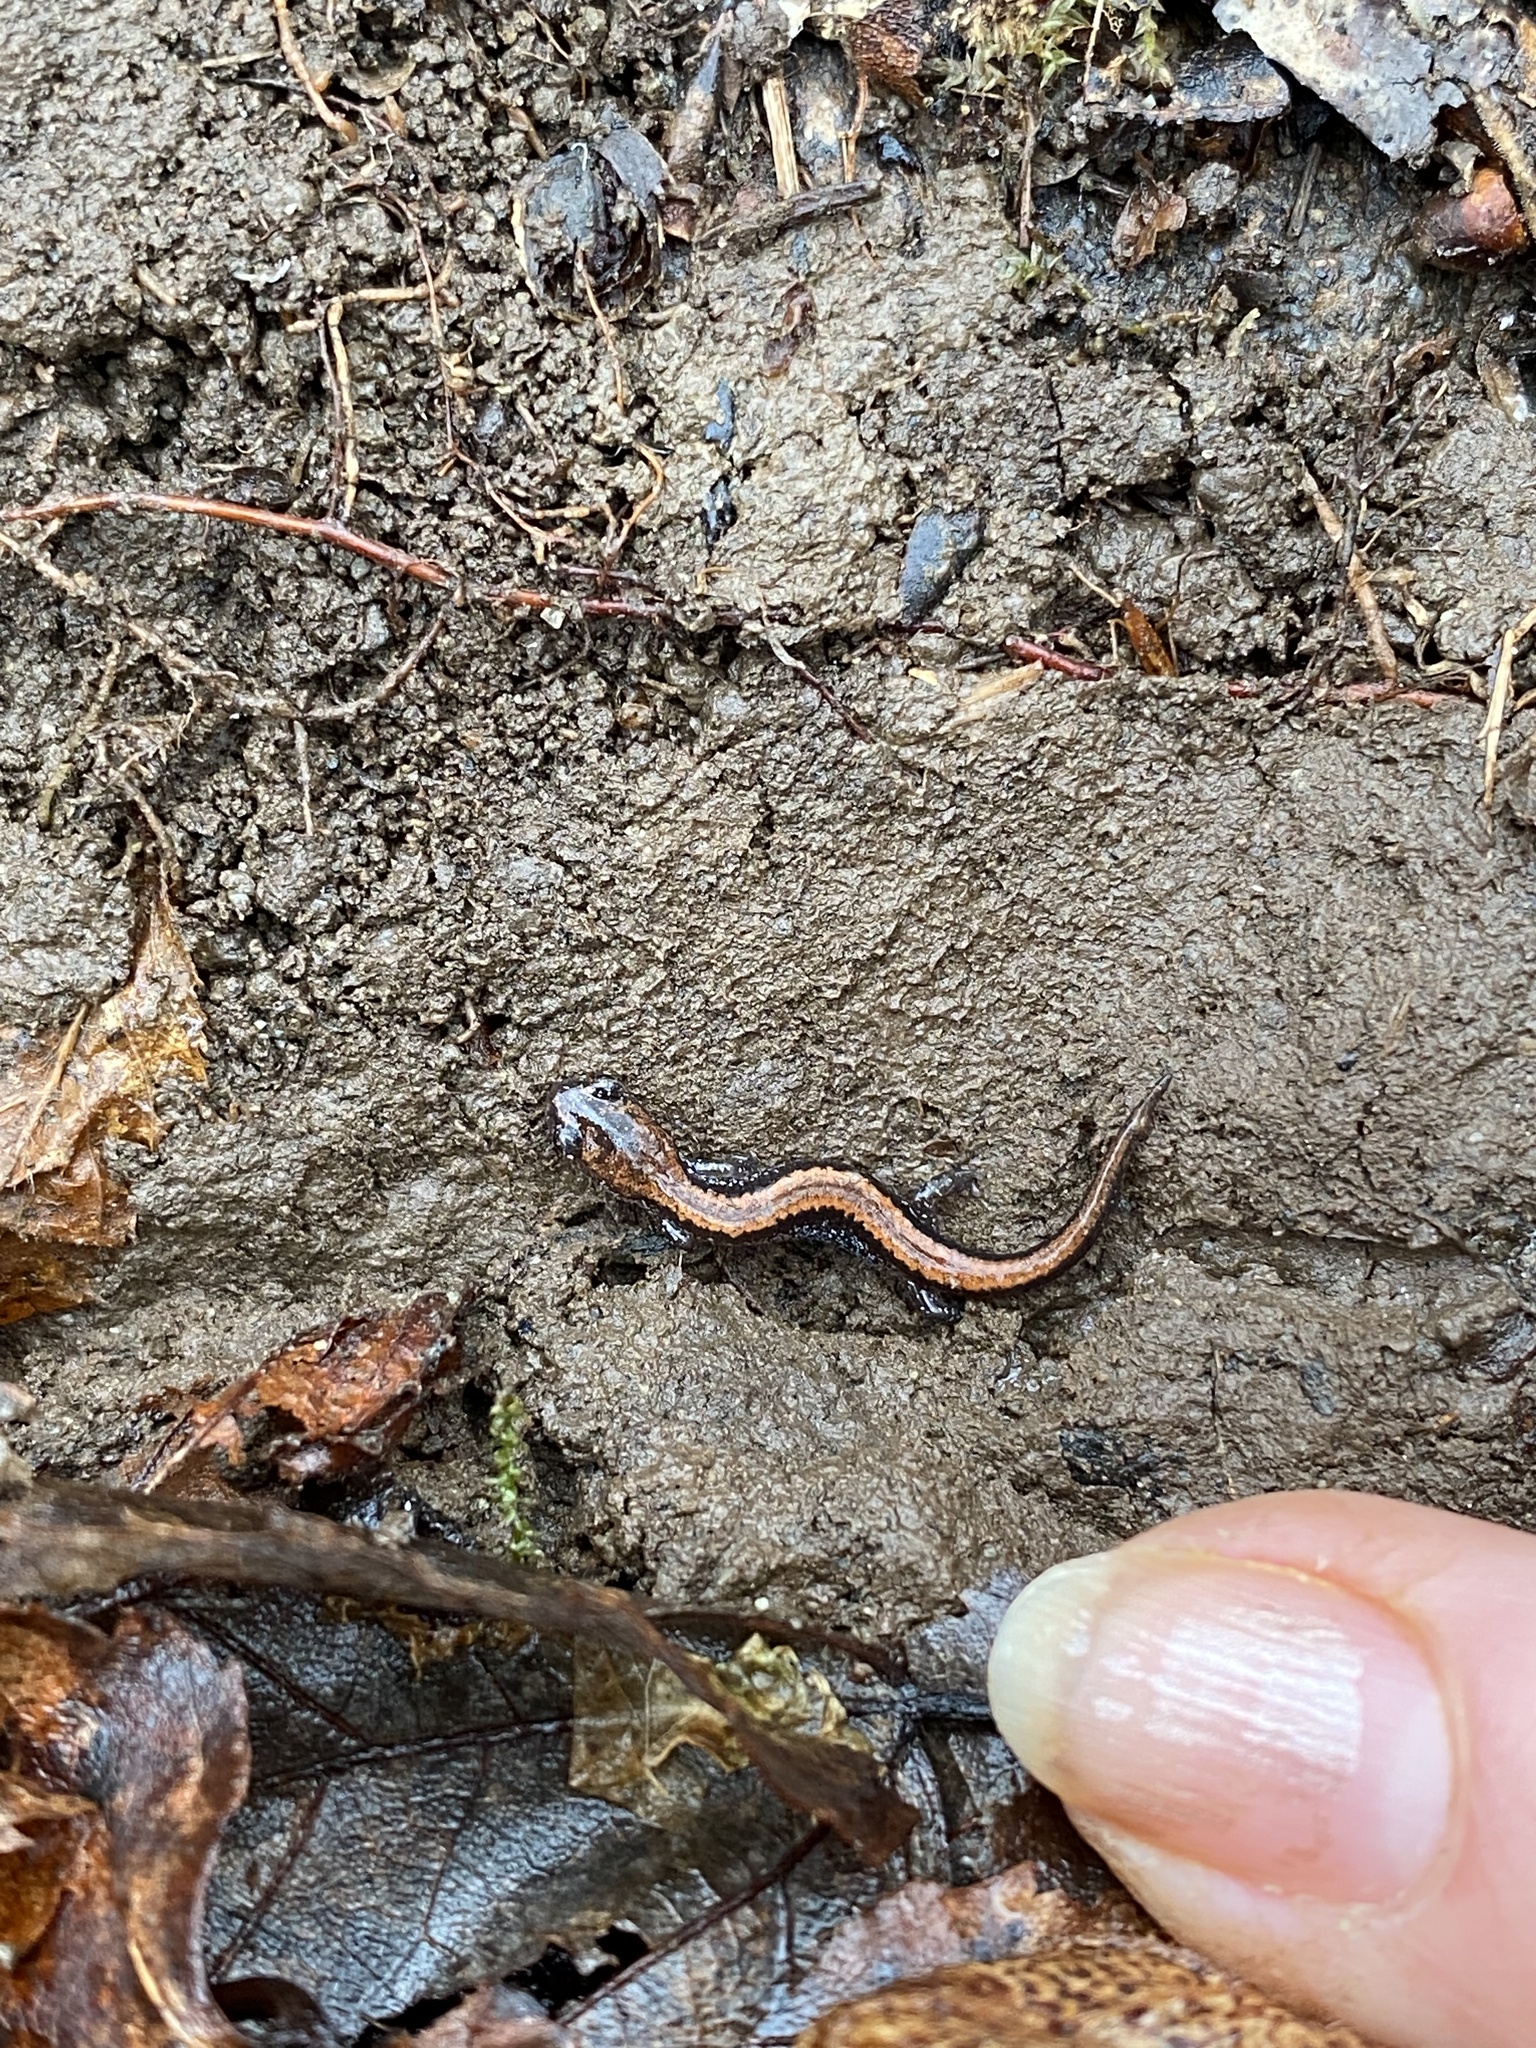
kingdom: Animalia
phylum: Chordata
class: Amphibia
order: Caudata
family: Plethodontidae
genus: Plethodon
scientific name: Plethodon cinereus
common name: Redback salamander
